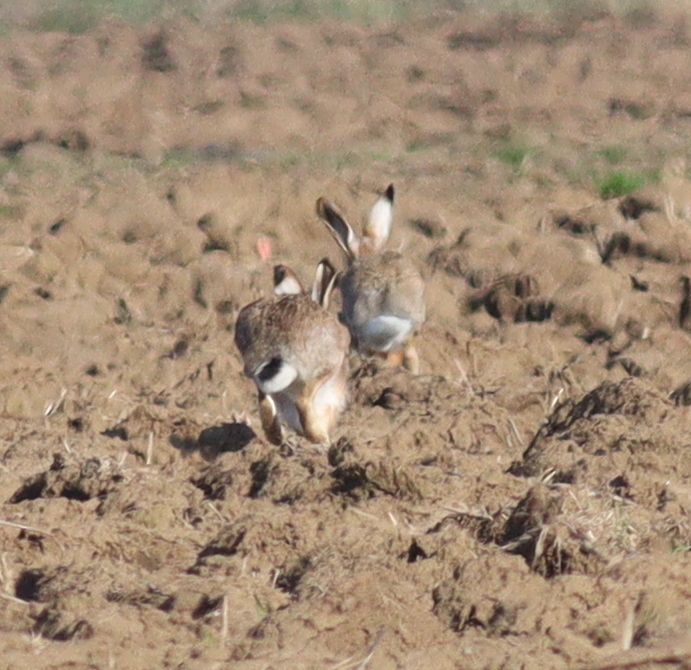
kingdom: Animalia
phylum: Chordata
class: Mammalia
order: Lagomorpha
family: Leporidae
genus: Lepus
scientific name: Lepus europaeus
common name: European hare
